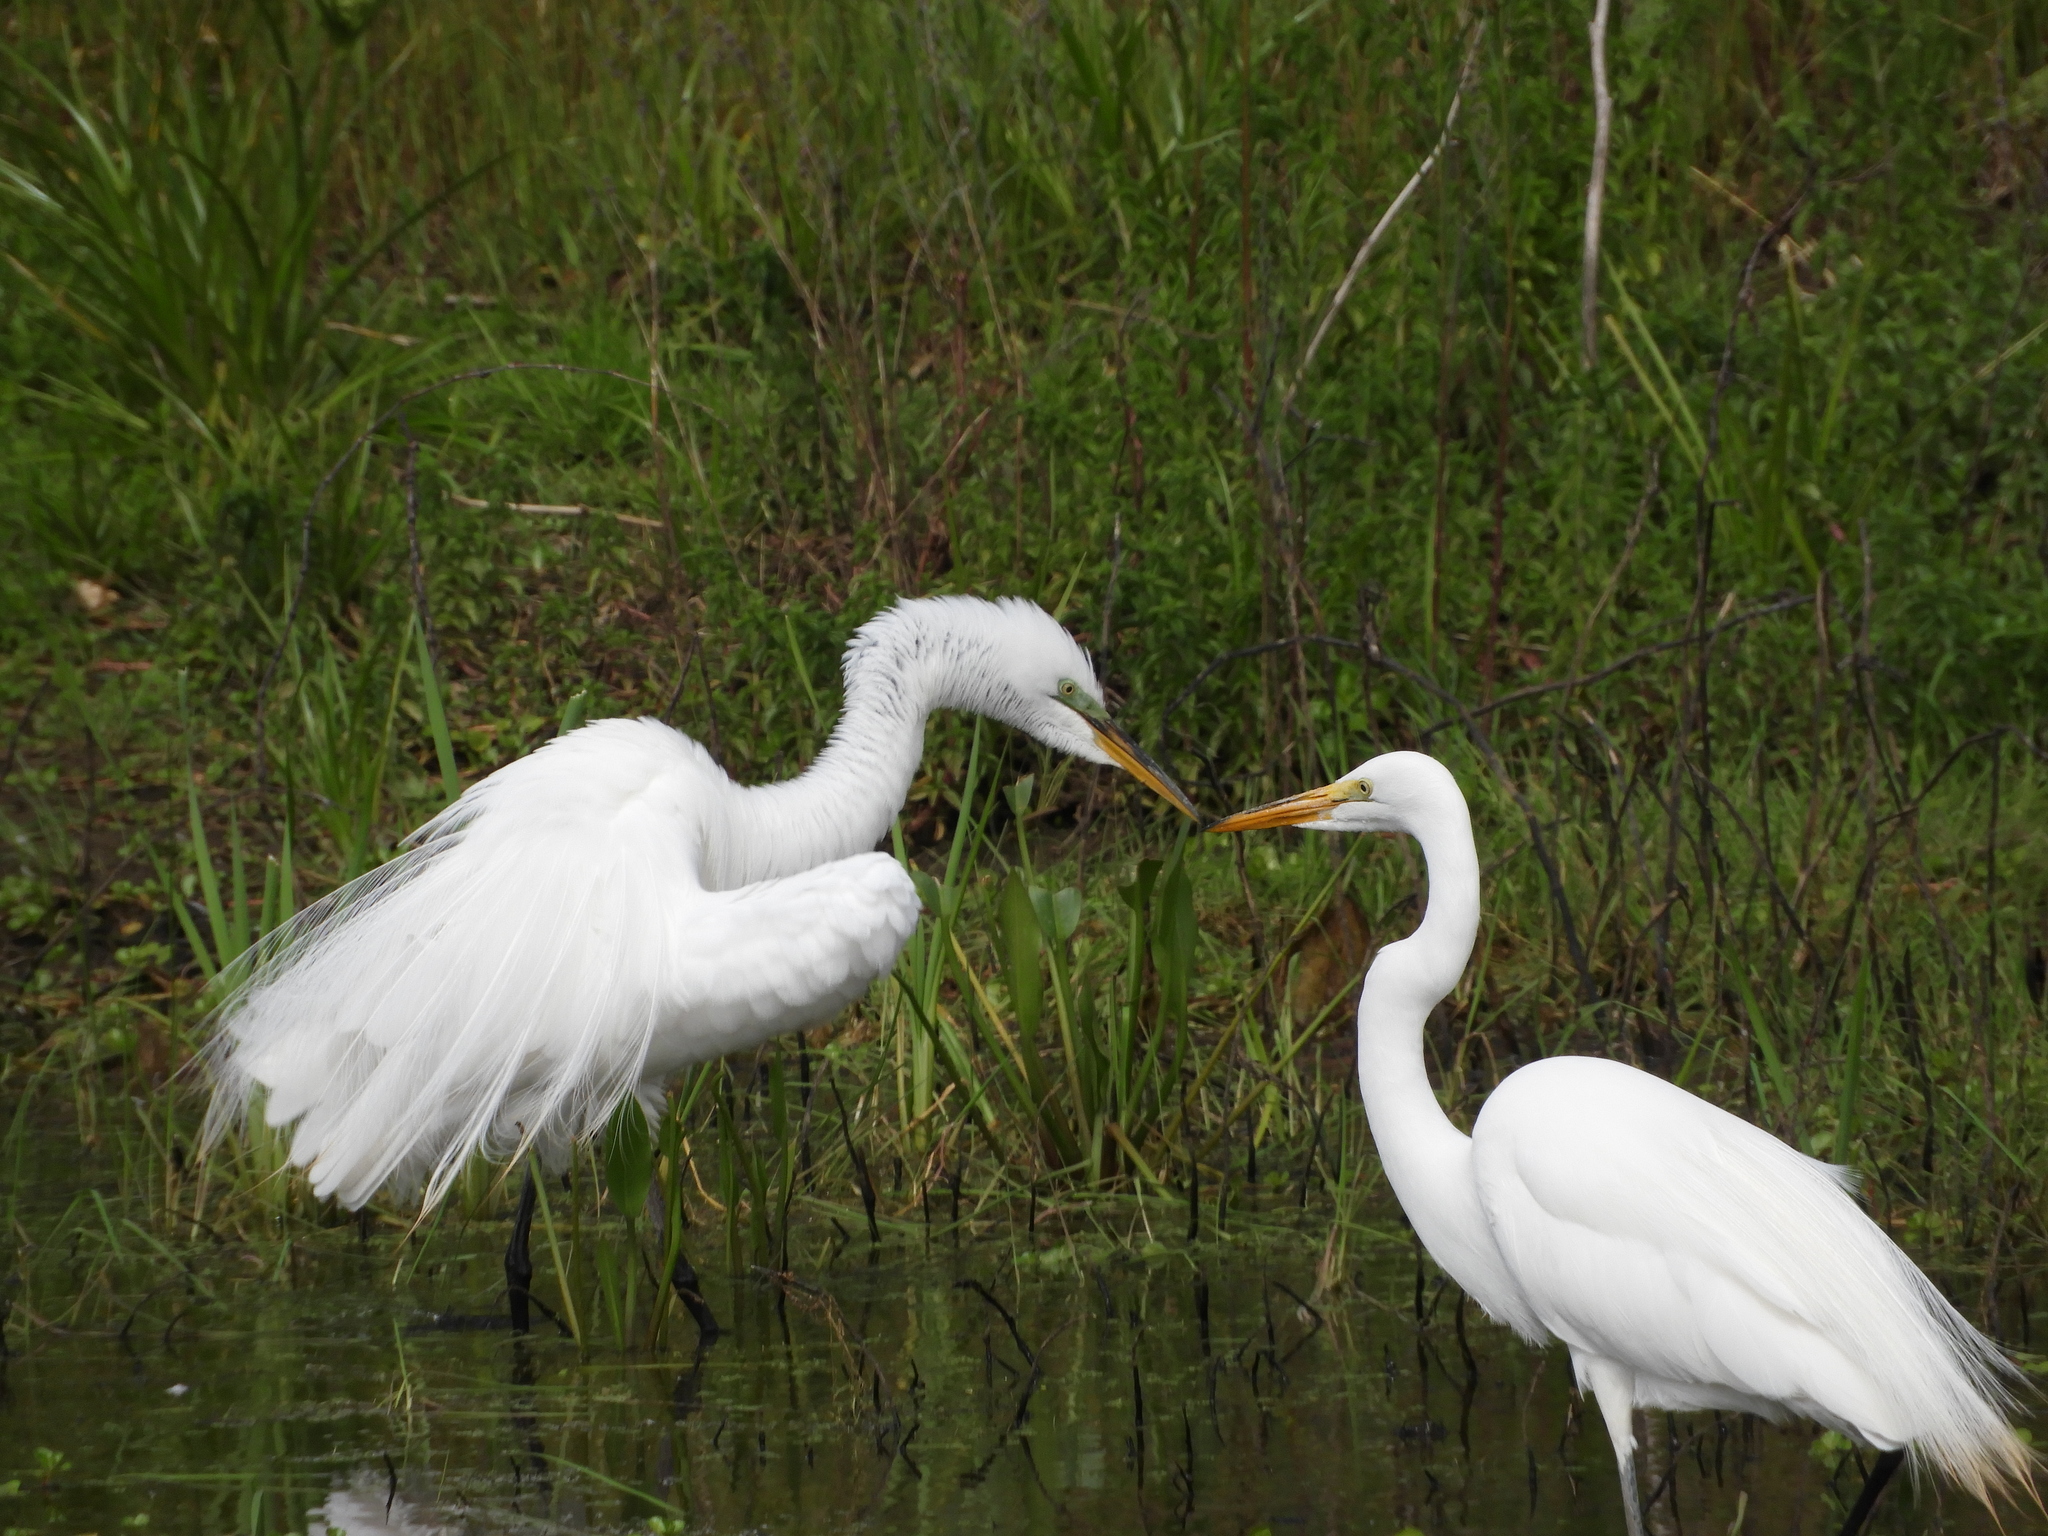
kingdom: Animalia
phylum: Chordata
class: Aves
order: Pelecaniformes
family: Ardeidae
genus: Ardea
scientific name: Ardea alba
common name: Great egret
